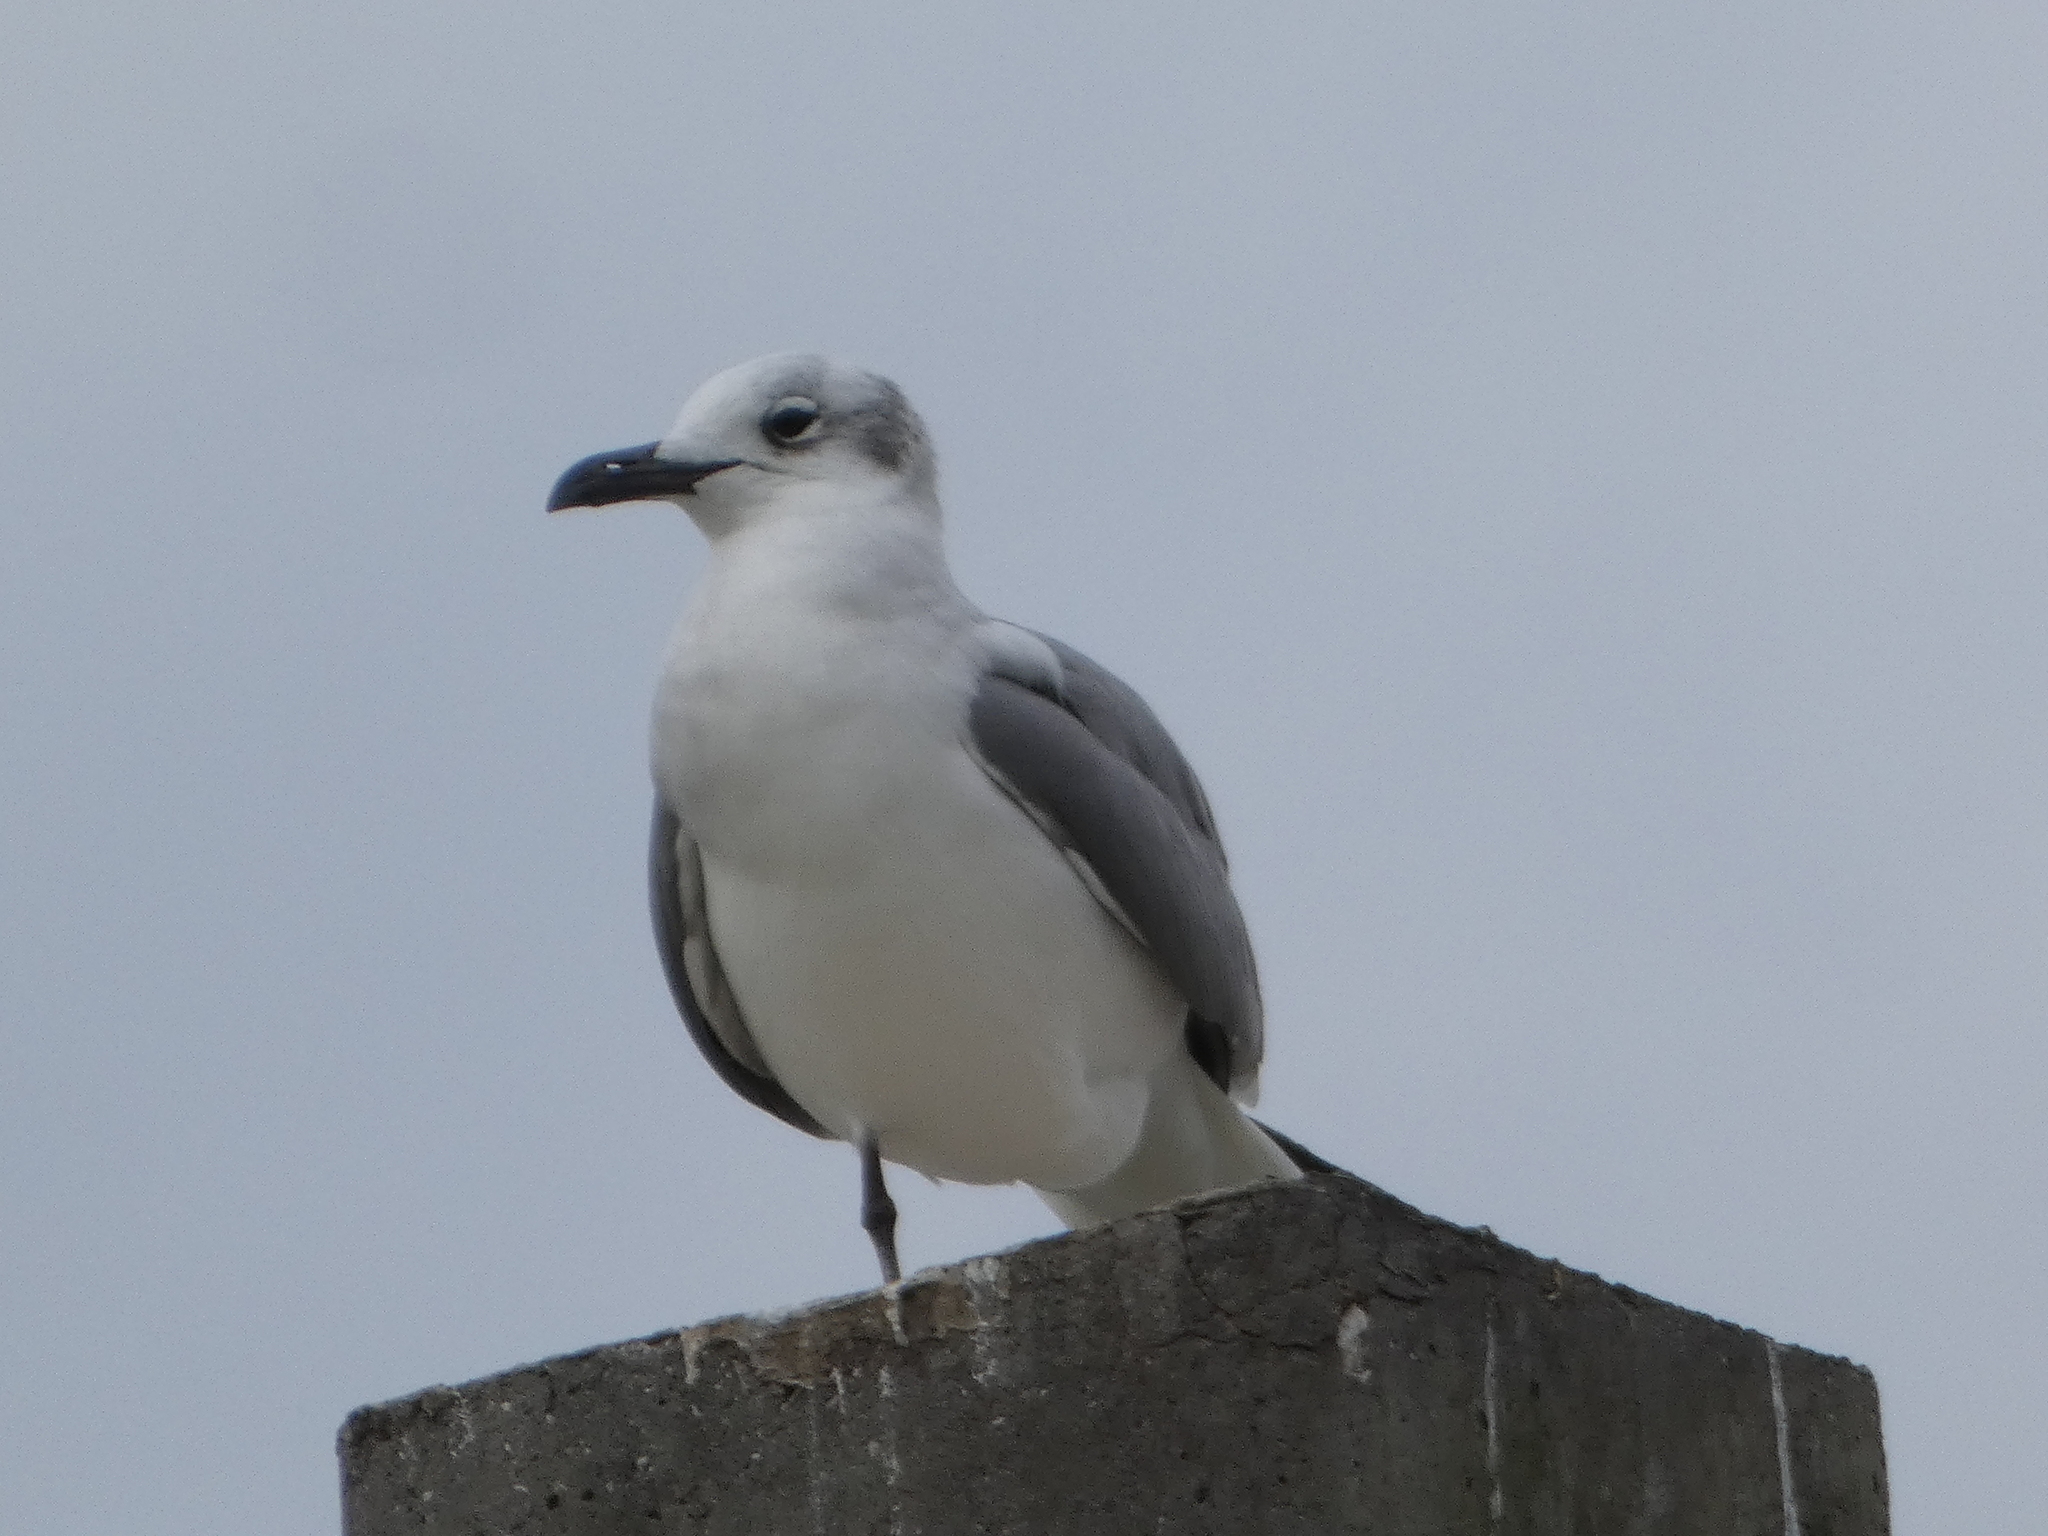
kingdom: Animalia
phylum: Chordata
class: Aves
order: Charadriiformes
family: Laridae
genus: Leucophaeus
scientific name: Leucophaeus atricilla
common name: Laughing gull
